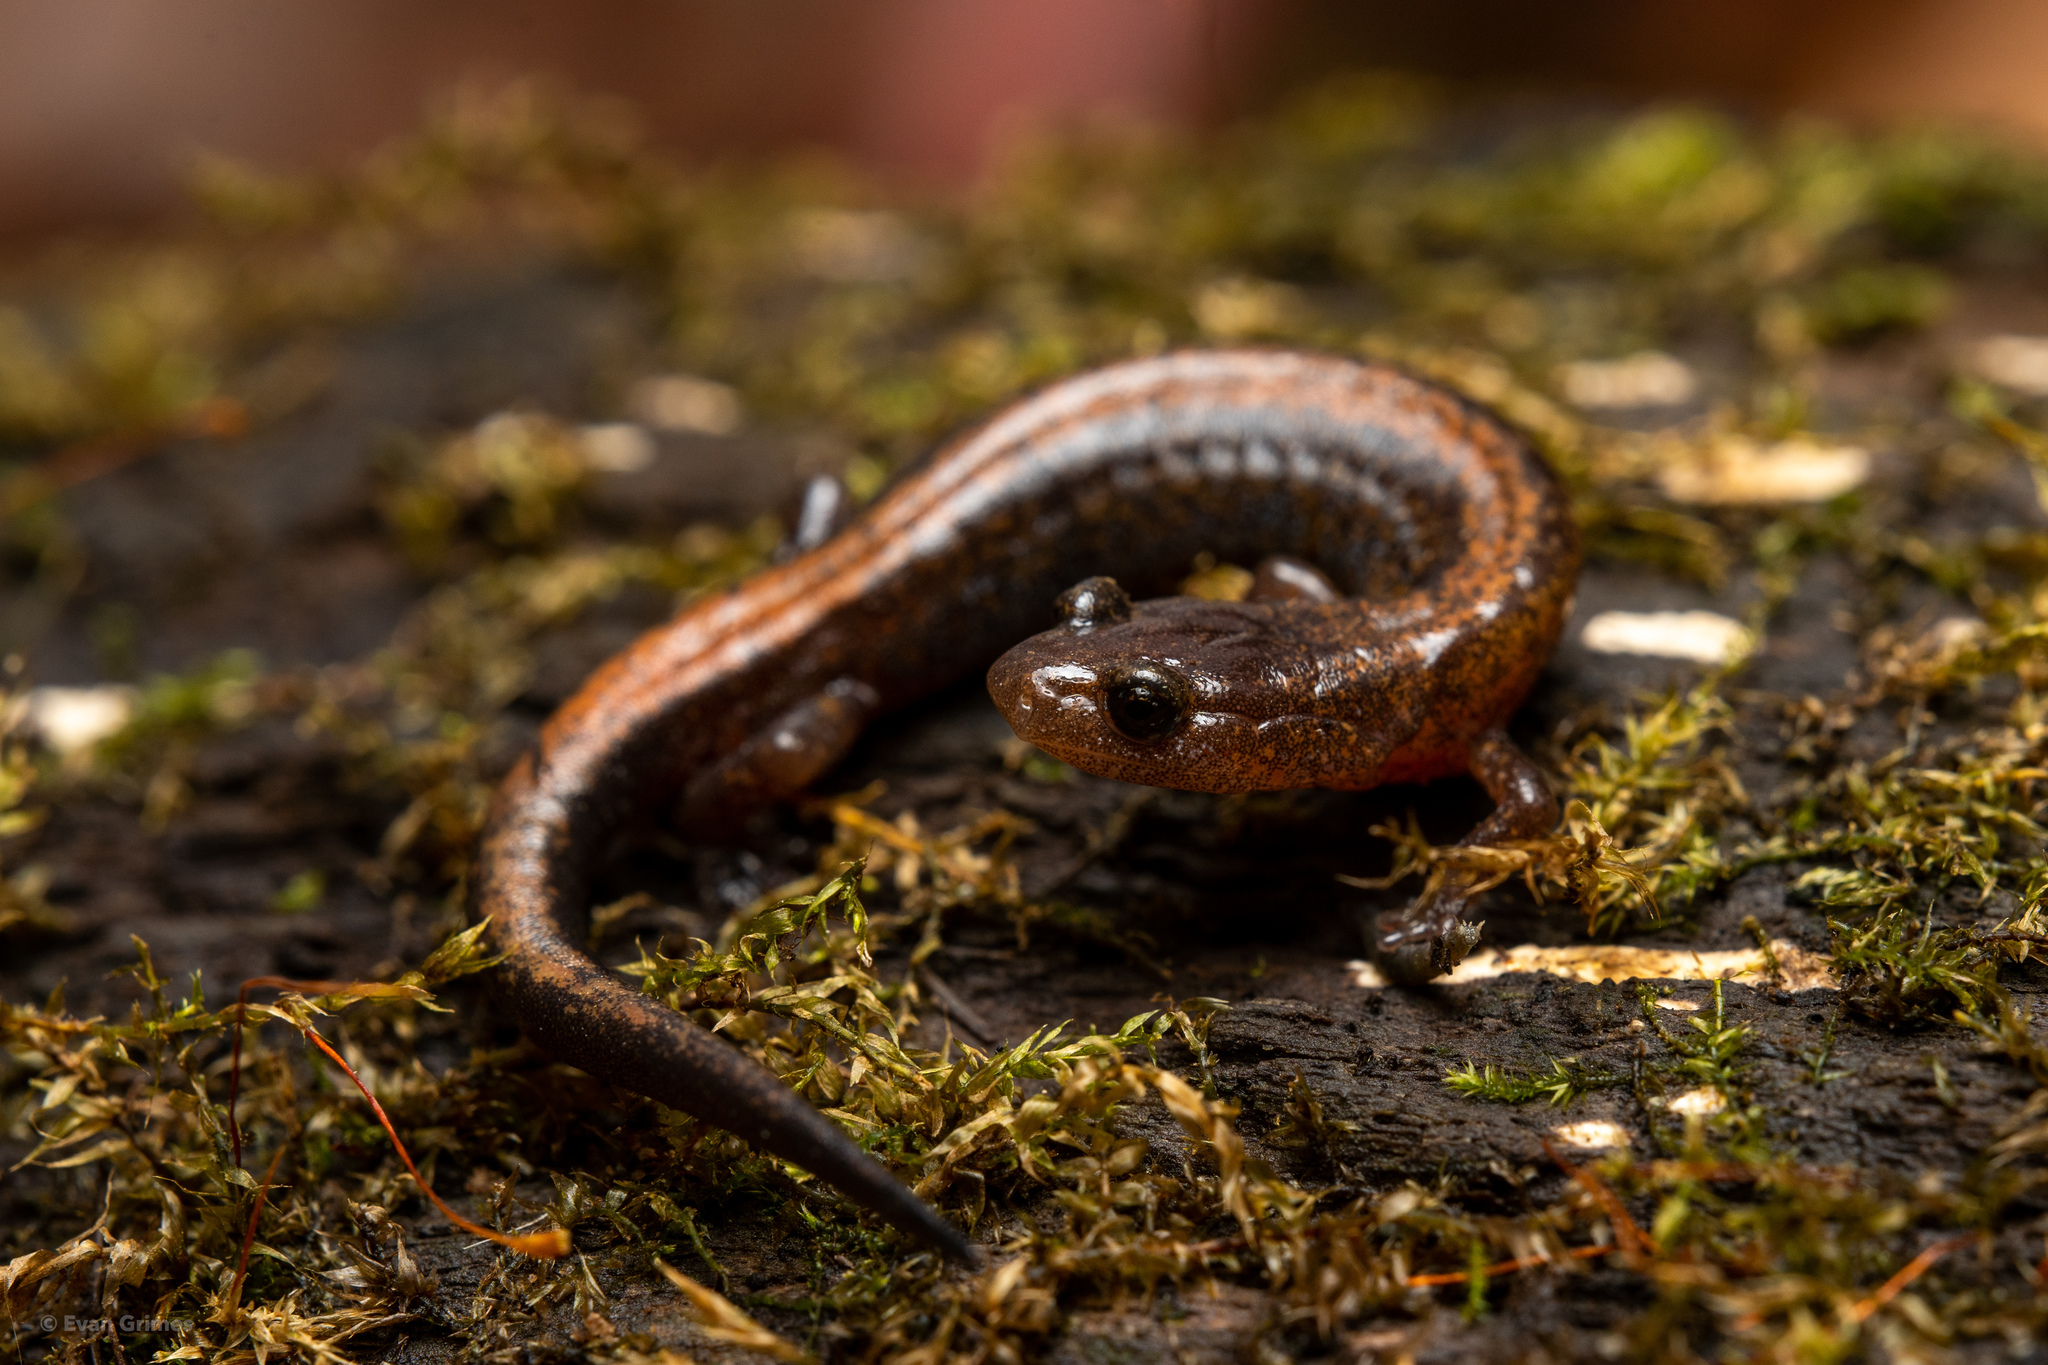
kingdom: Animalia
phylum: Chordata
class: Amphibia
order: Caudata
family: Plethodontidae
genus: Plethodon
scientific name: Plethodon dorsalis
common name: Northern zigzag salamander
